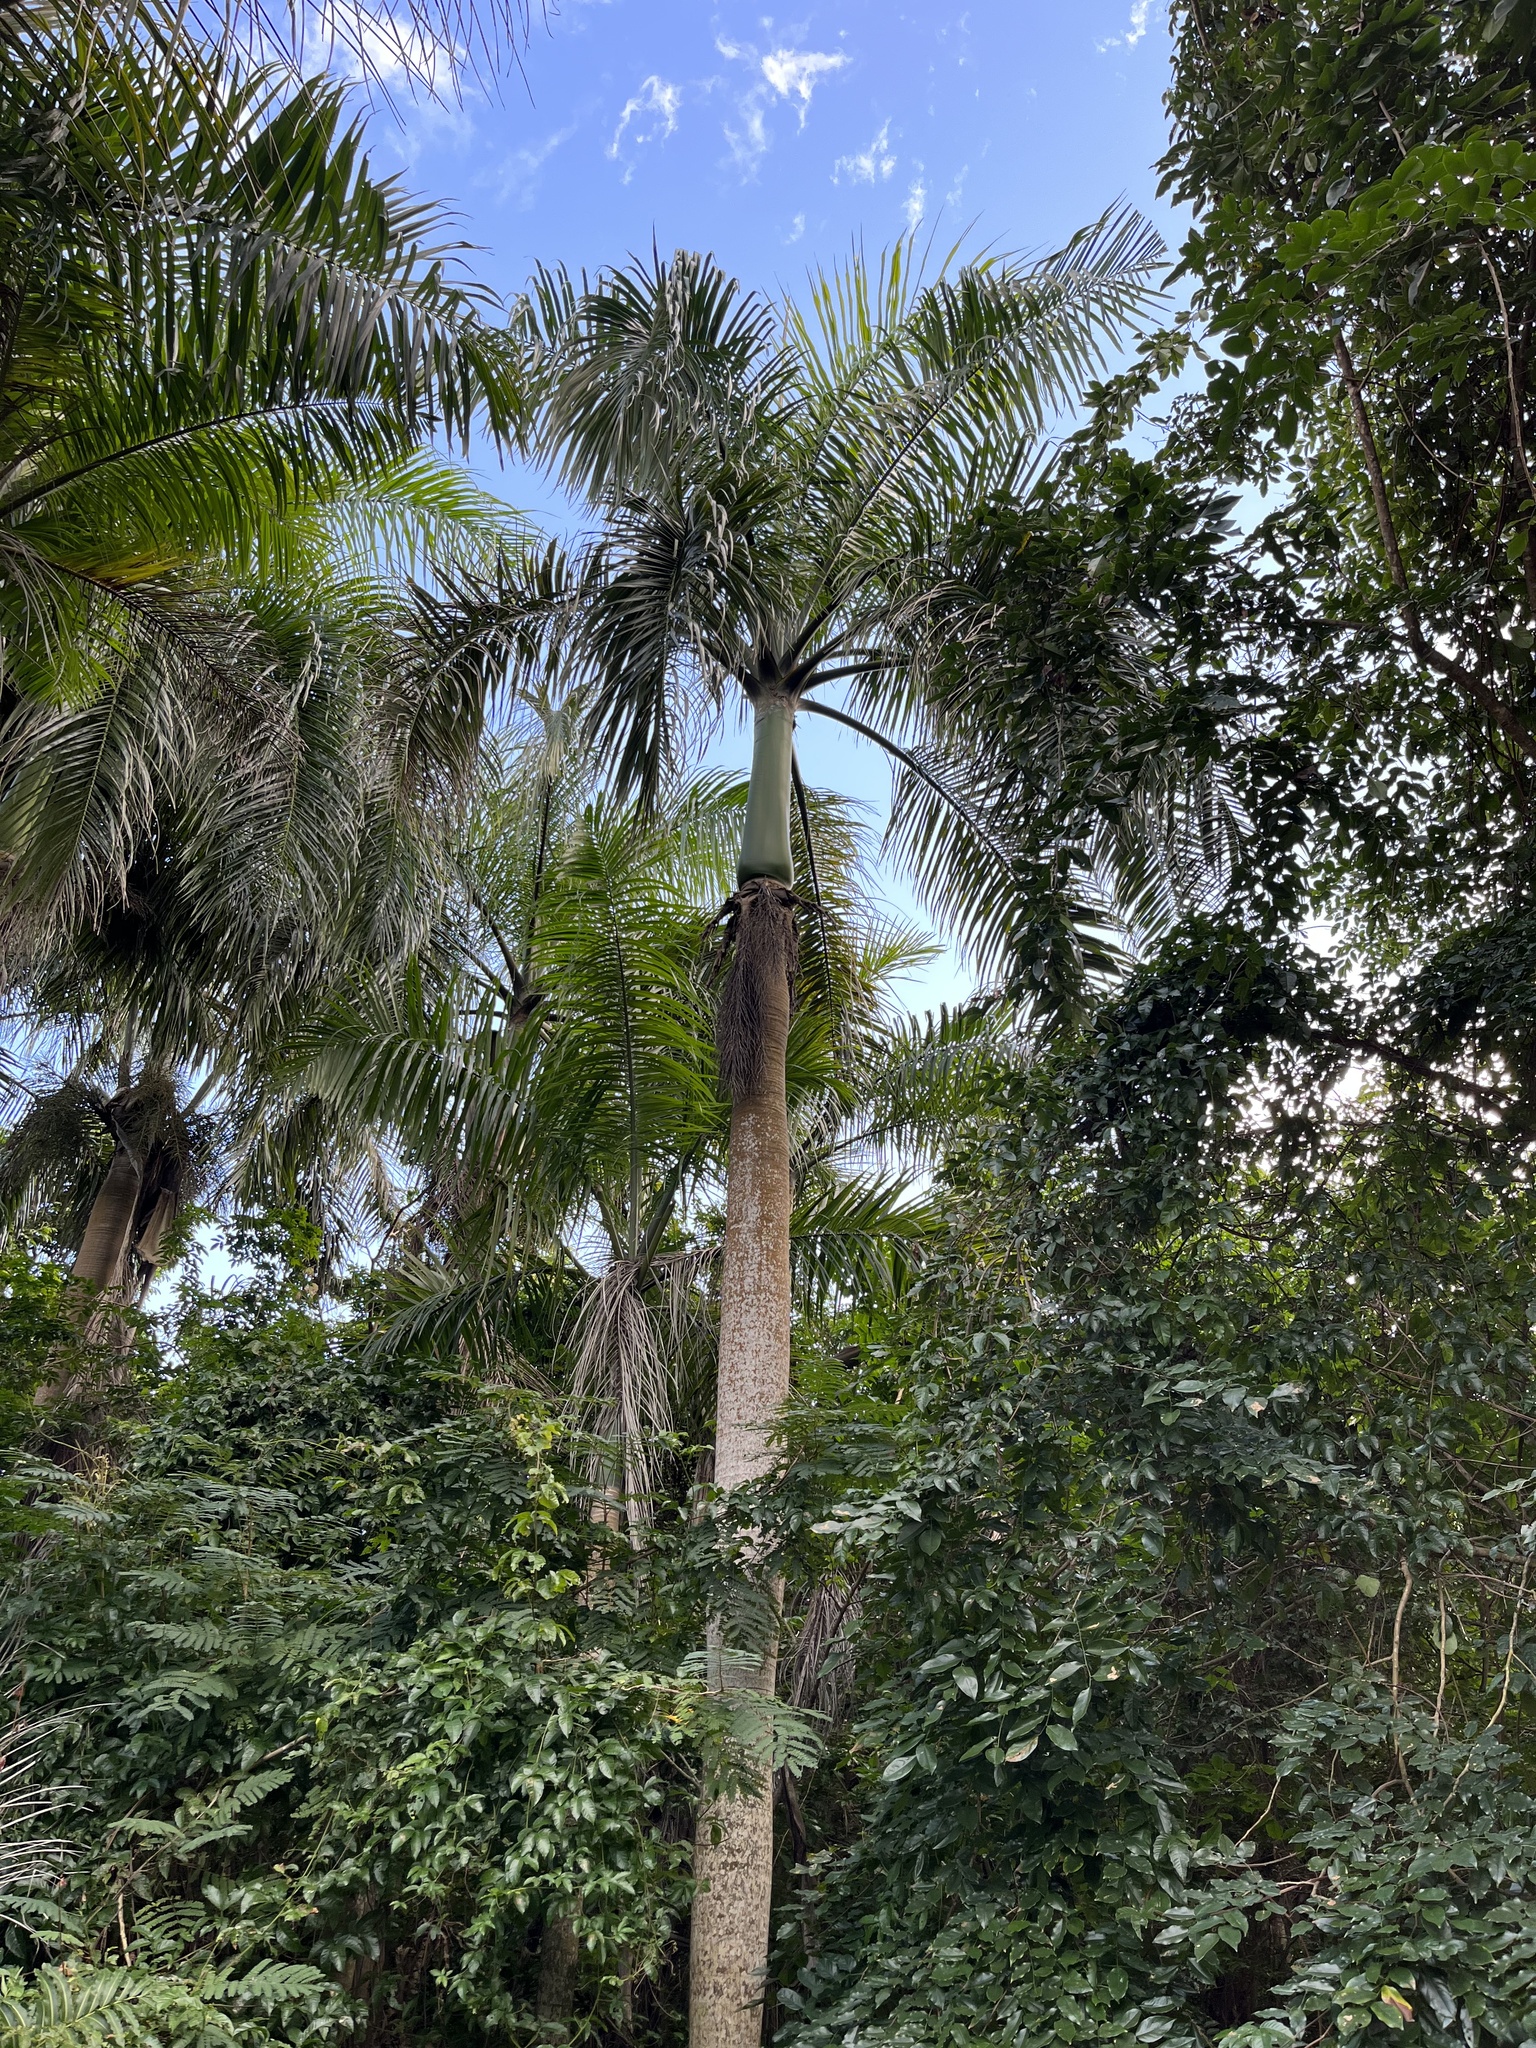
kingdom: Plantae
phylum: Tracheophyta
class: Liliopsida
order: Arecales
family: Arecaceae
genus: Roystonea
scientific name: Roystonea borinquena
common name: Puerto rican royal palm
